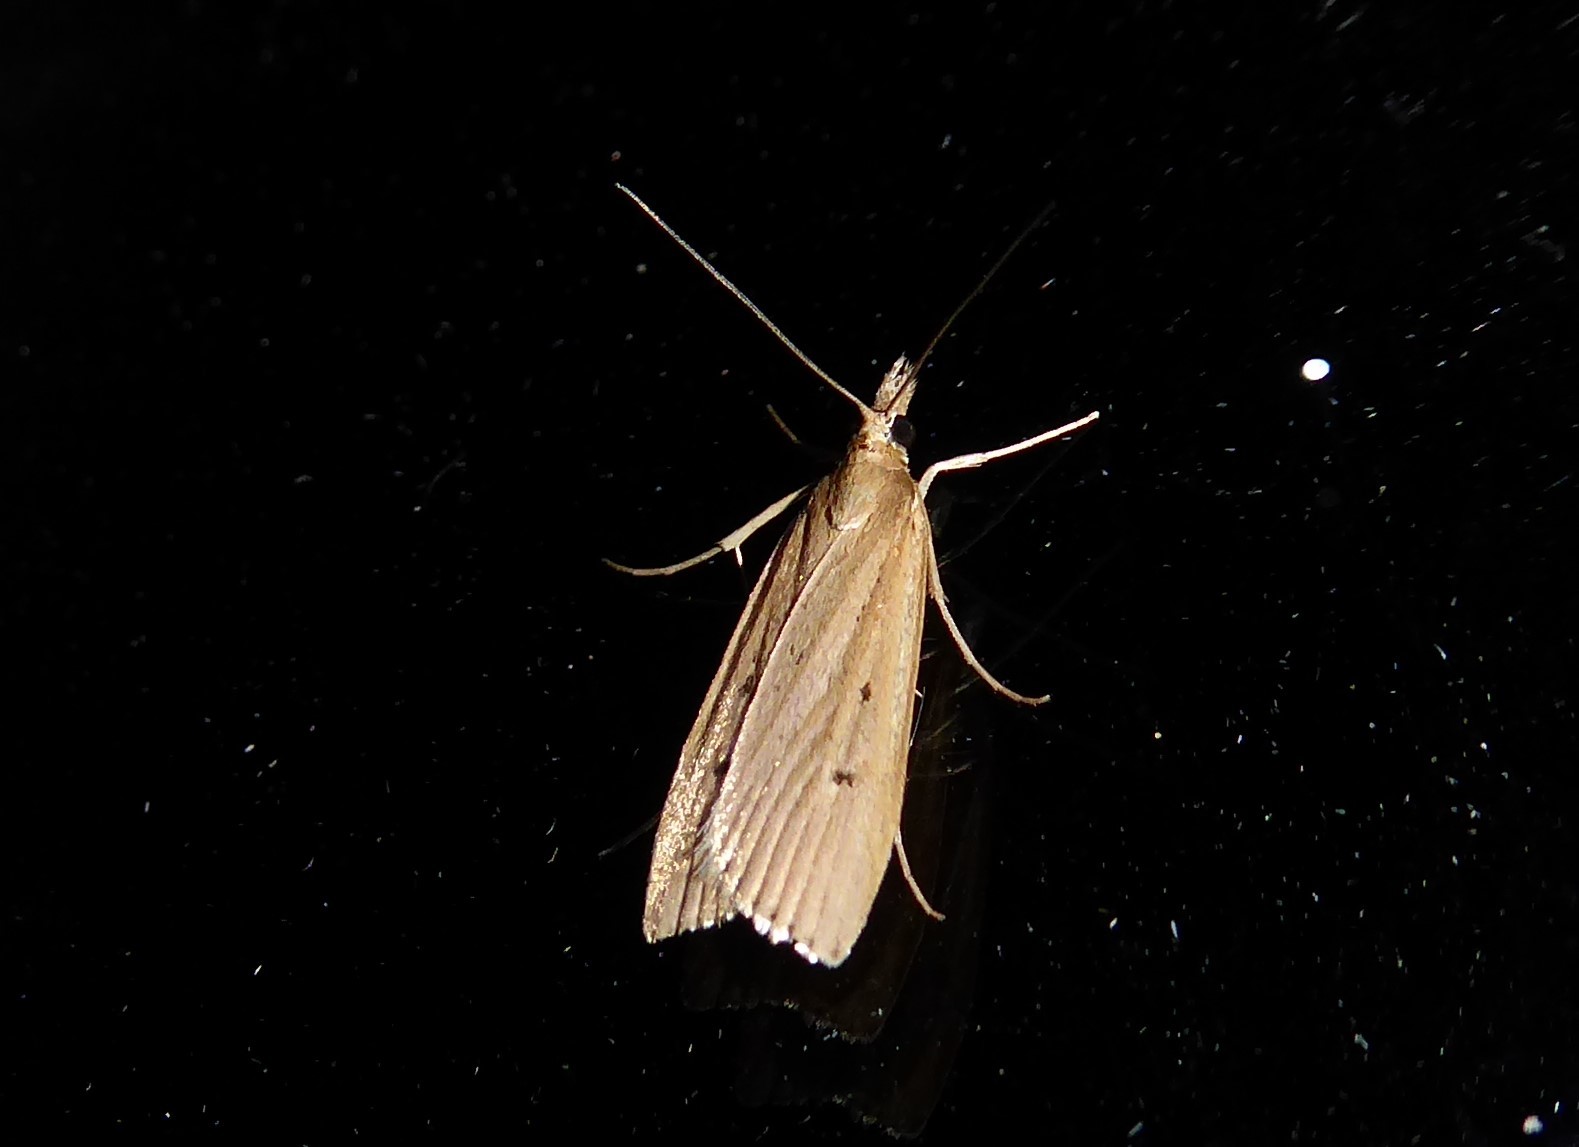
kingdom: Animalia
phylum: Arthropoda
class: Insecta
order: Lepidoptera
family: Crambidae
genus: Eudonia
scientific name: Eudonia sabulosella
